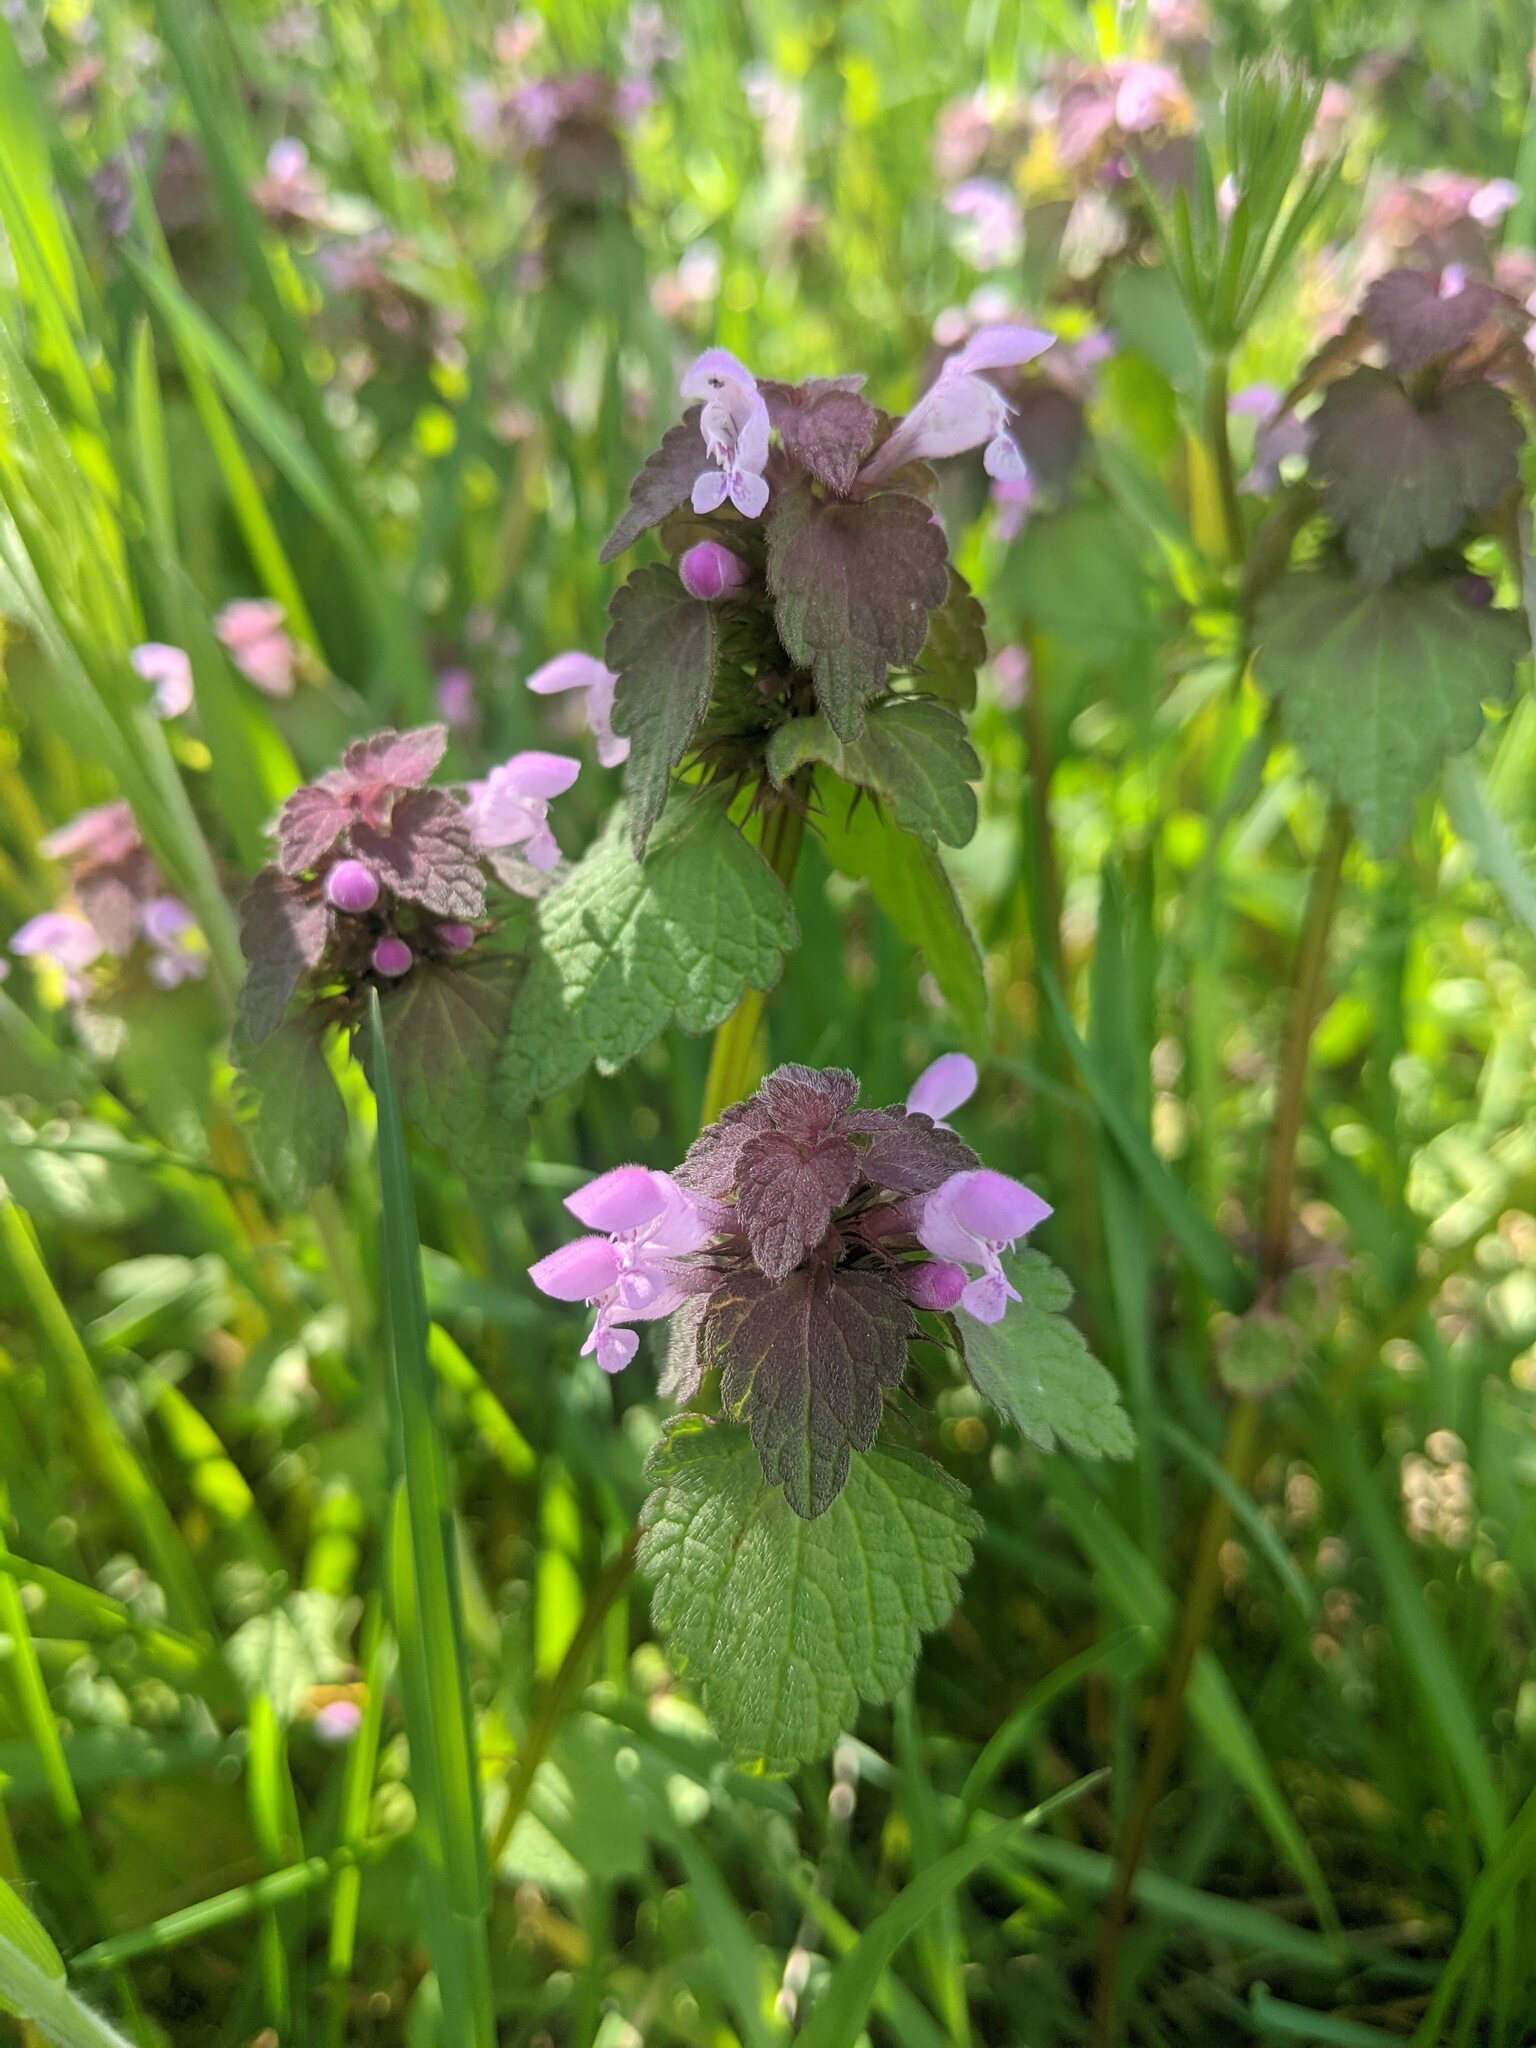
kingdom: Plantae
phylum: Tracheophyta
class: Magnoliopsida
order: Lamiales
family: Lamiaceae
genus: Lamium
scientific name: Lamium purpureum
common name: Red dead-nettle
